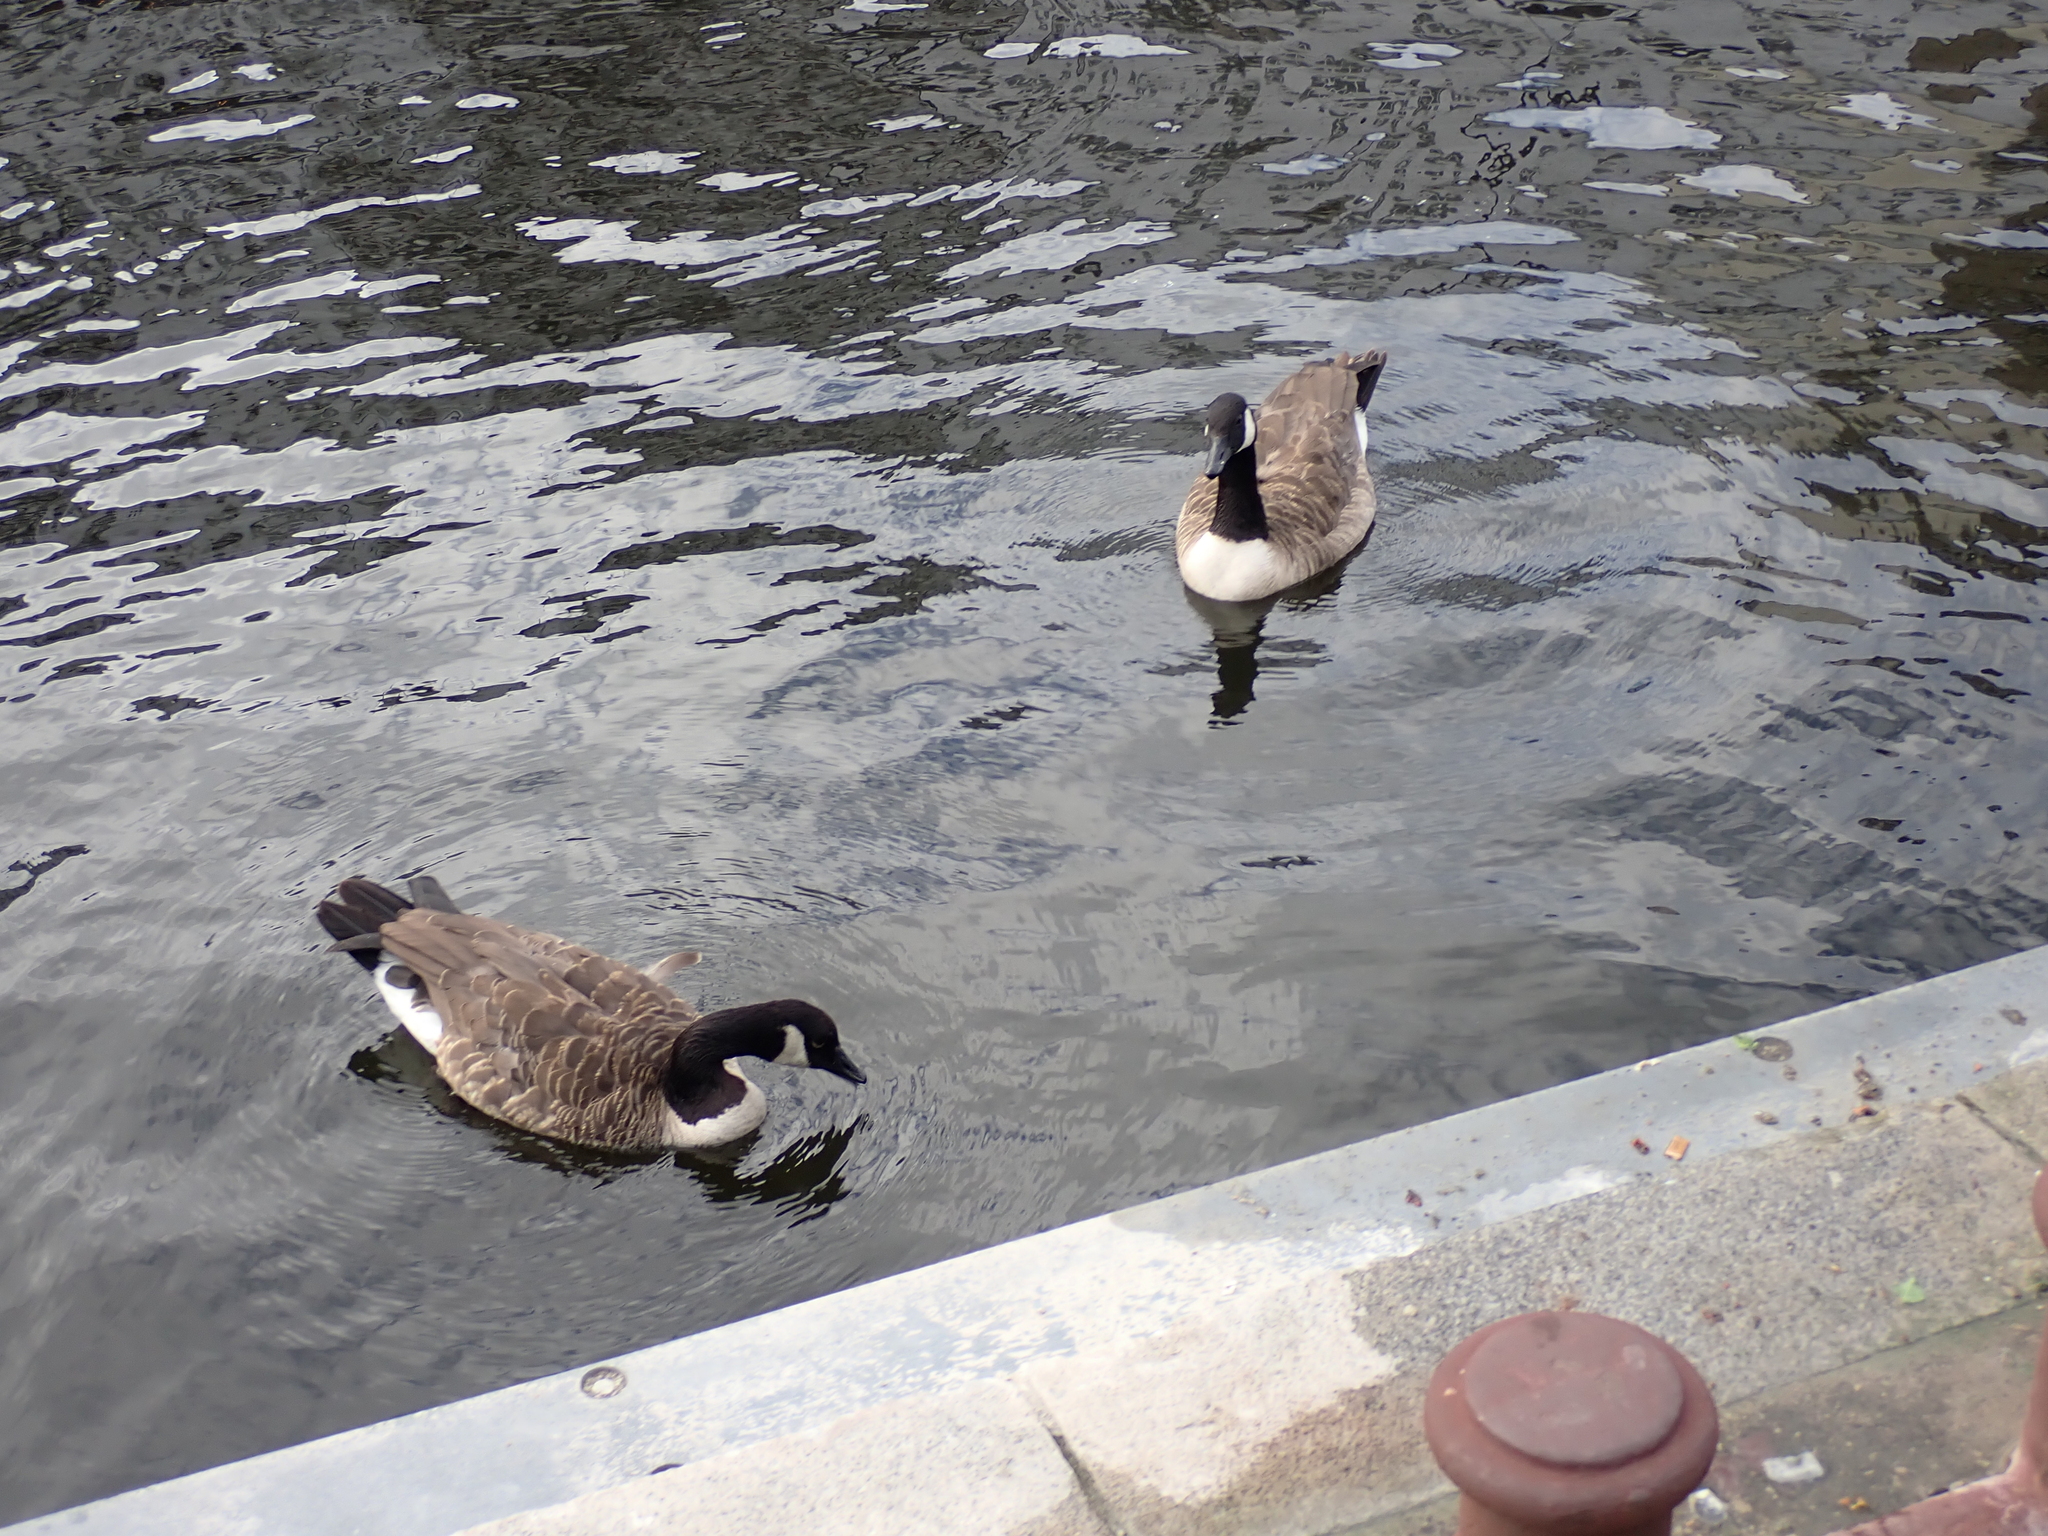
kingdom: Animalia
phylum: Chordata
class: Aves
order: Anseriformes
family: Anatidae
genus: Branta
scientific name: Branta canadensis
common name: Canada goose
